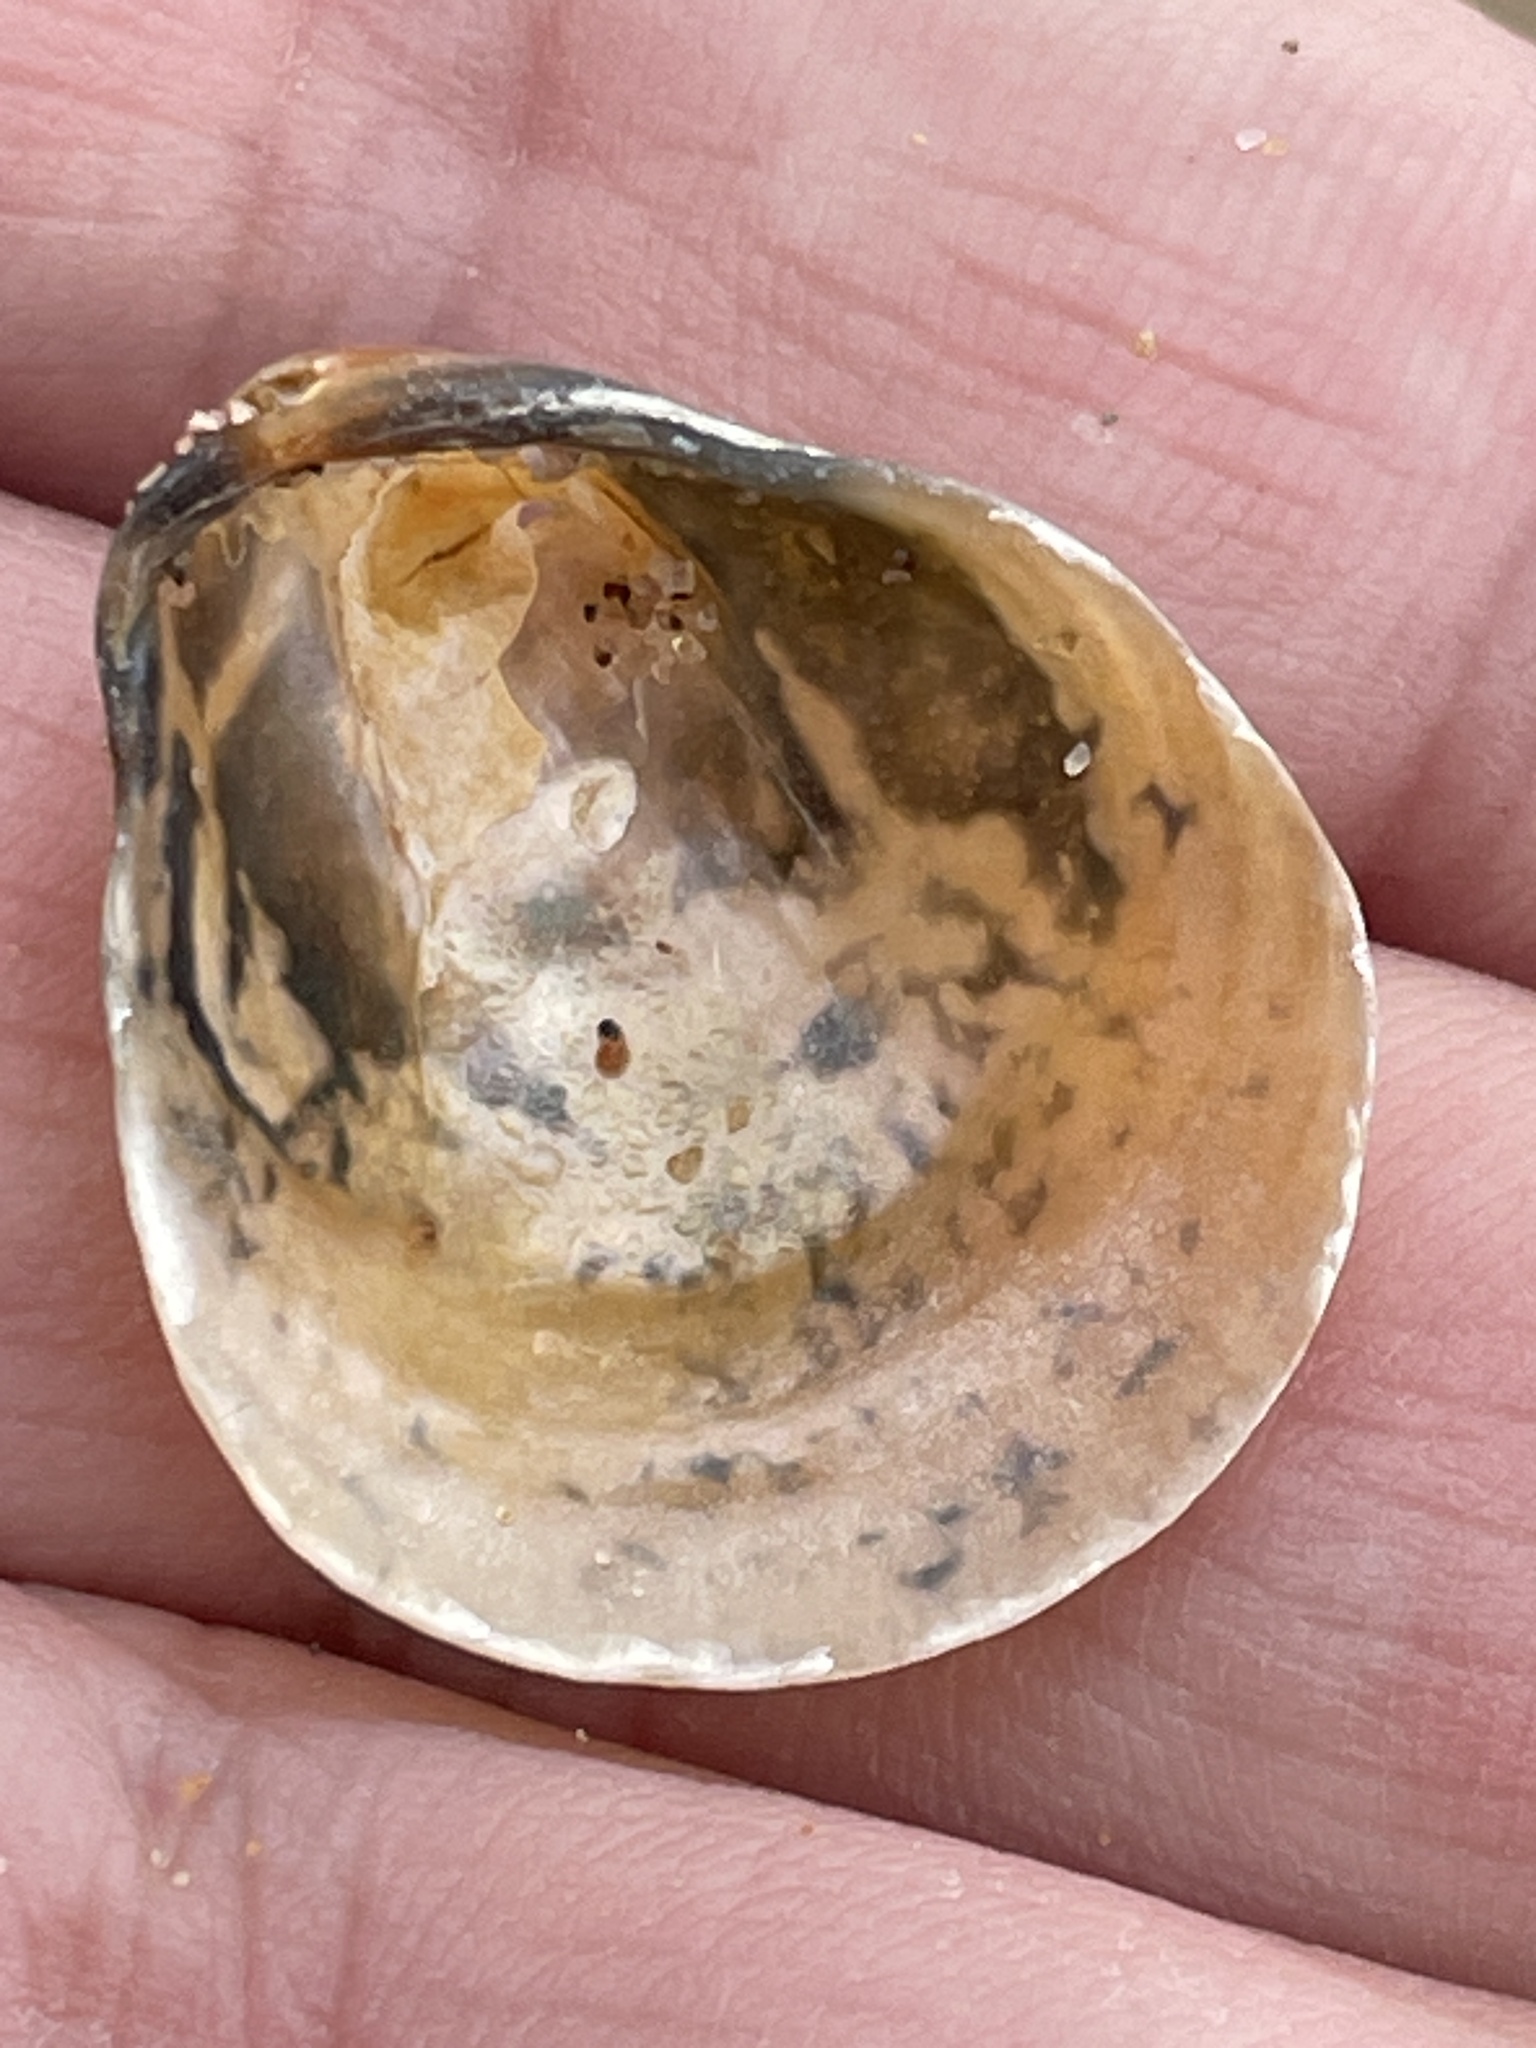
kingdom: Animalia
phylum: Mollusca
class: Bivalvia
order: Pectinida
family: Anomiidae
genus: Anomia
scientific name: Anomia simplex
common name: Common jingle shell
